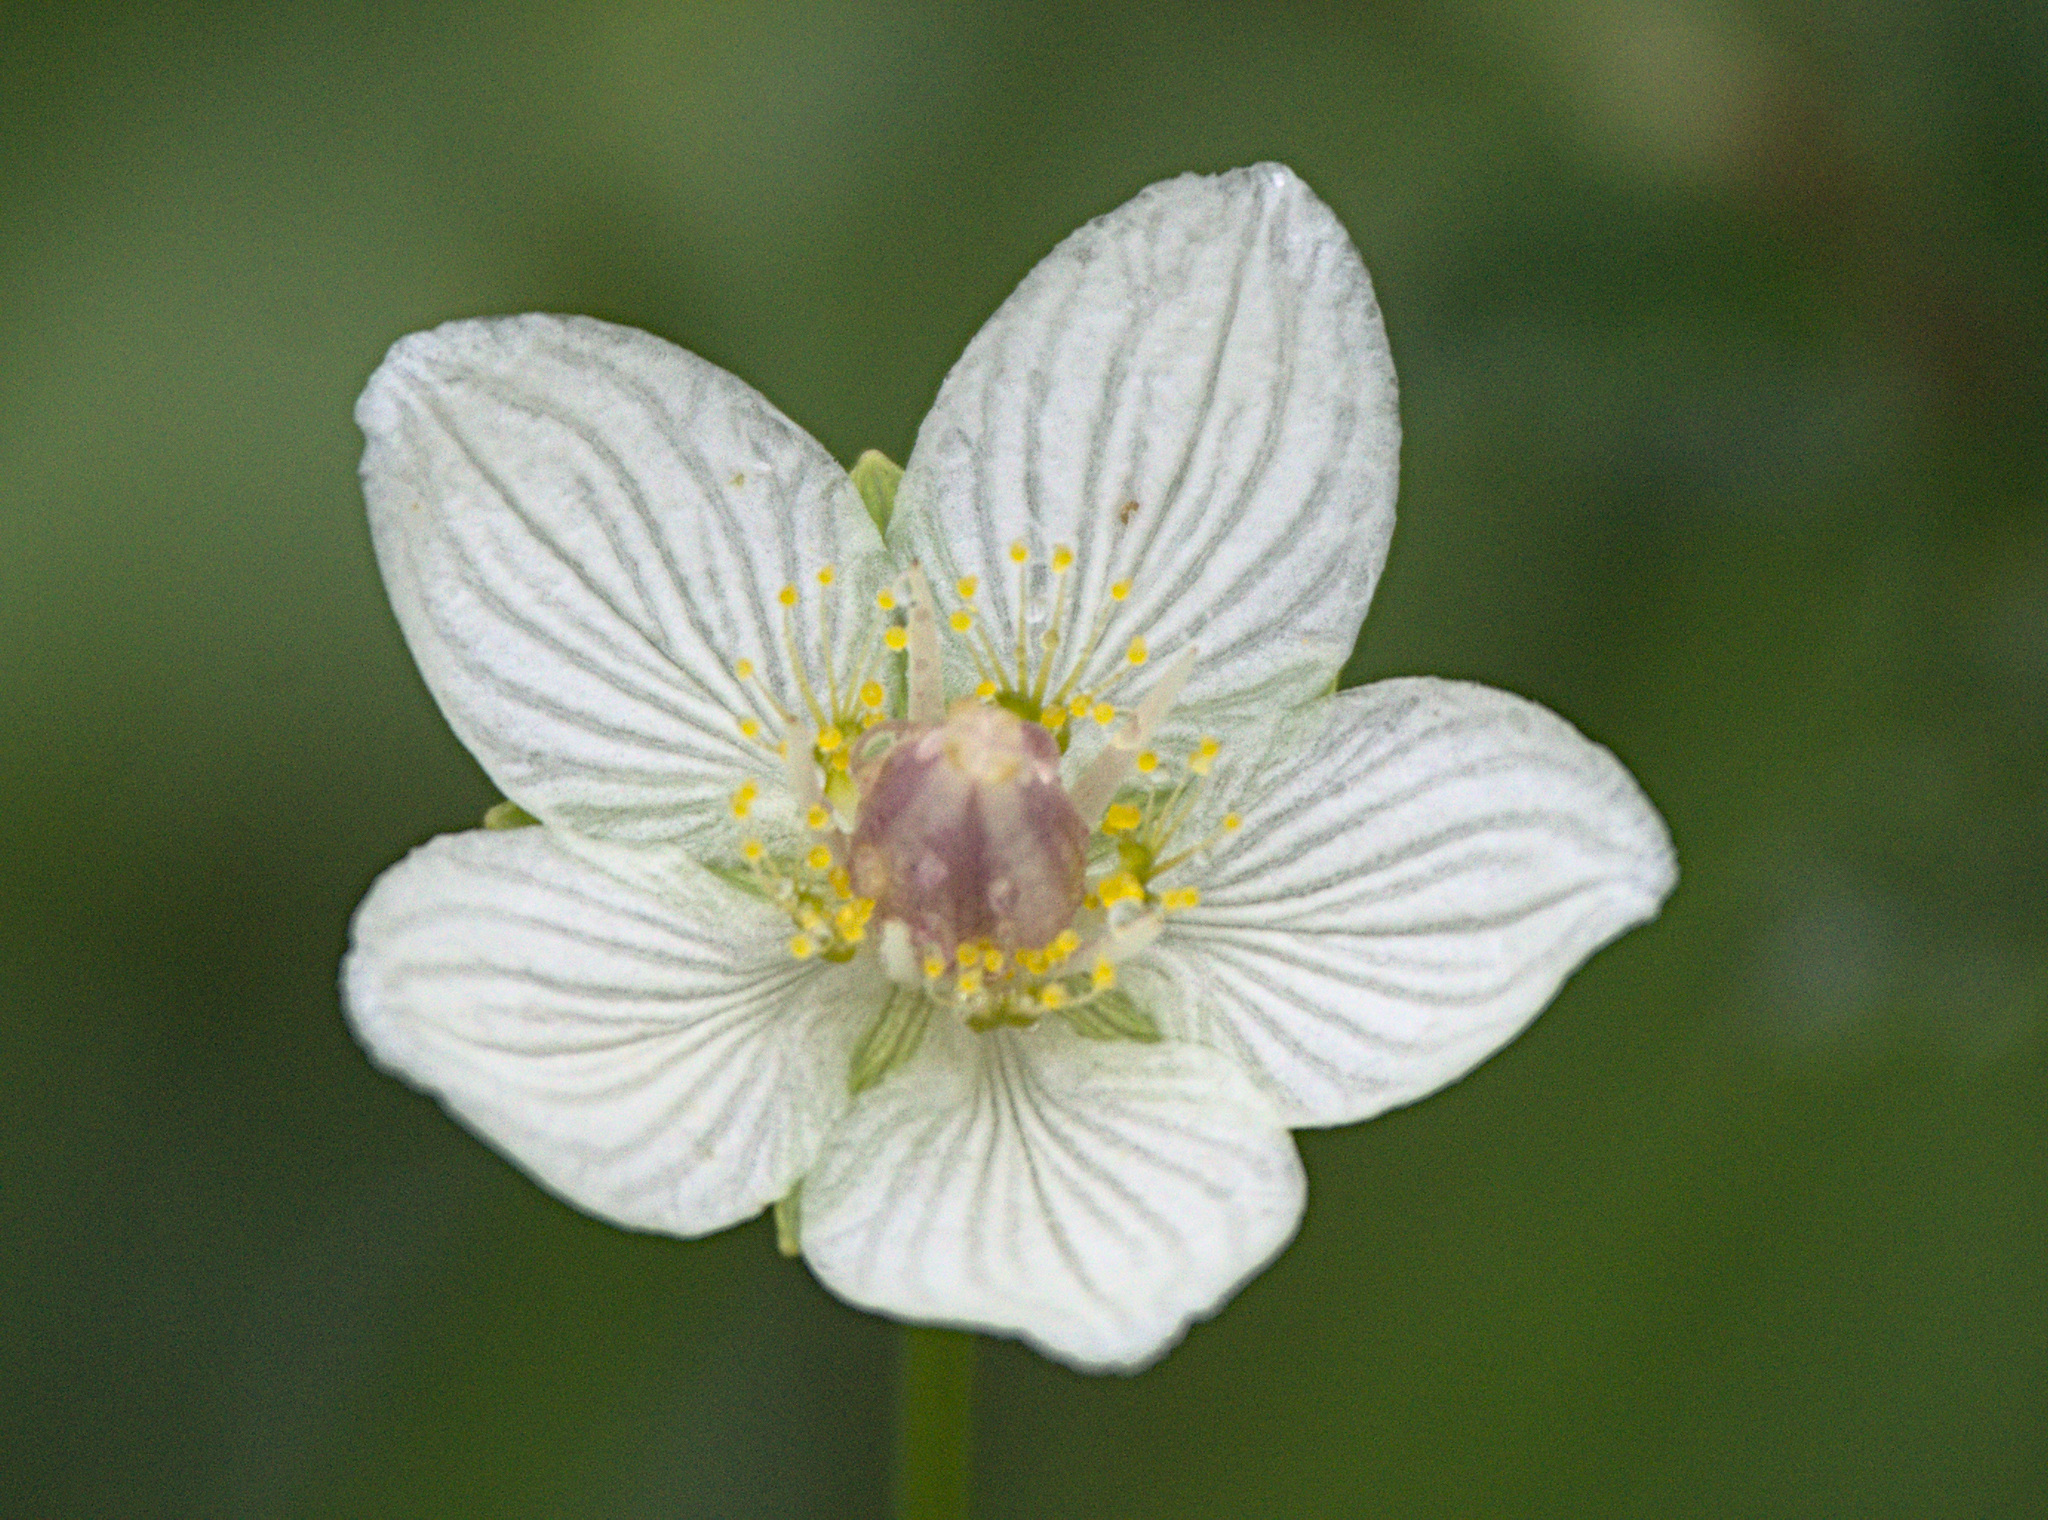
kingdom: Plantae
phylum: Tracheophyta
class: Magnoliopsida
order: Celastrales
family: Parnassiaceae
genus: Parnassia
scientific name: Parnassia palustris
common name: Grass-of-parnassus
